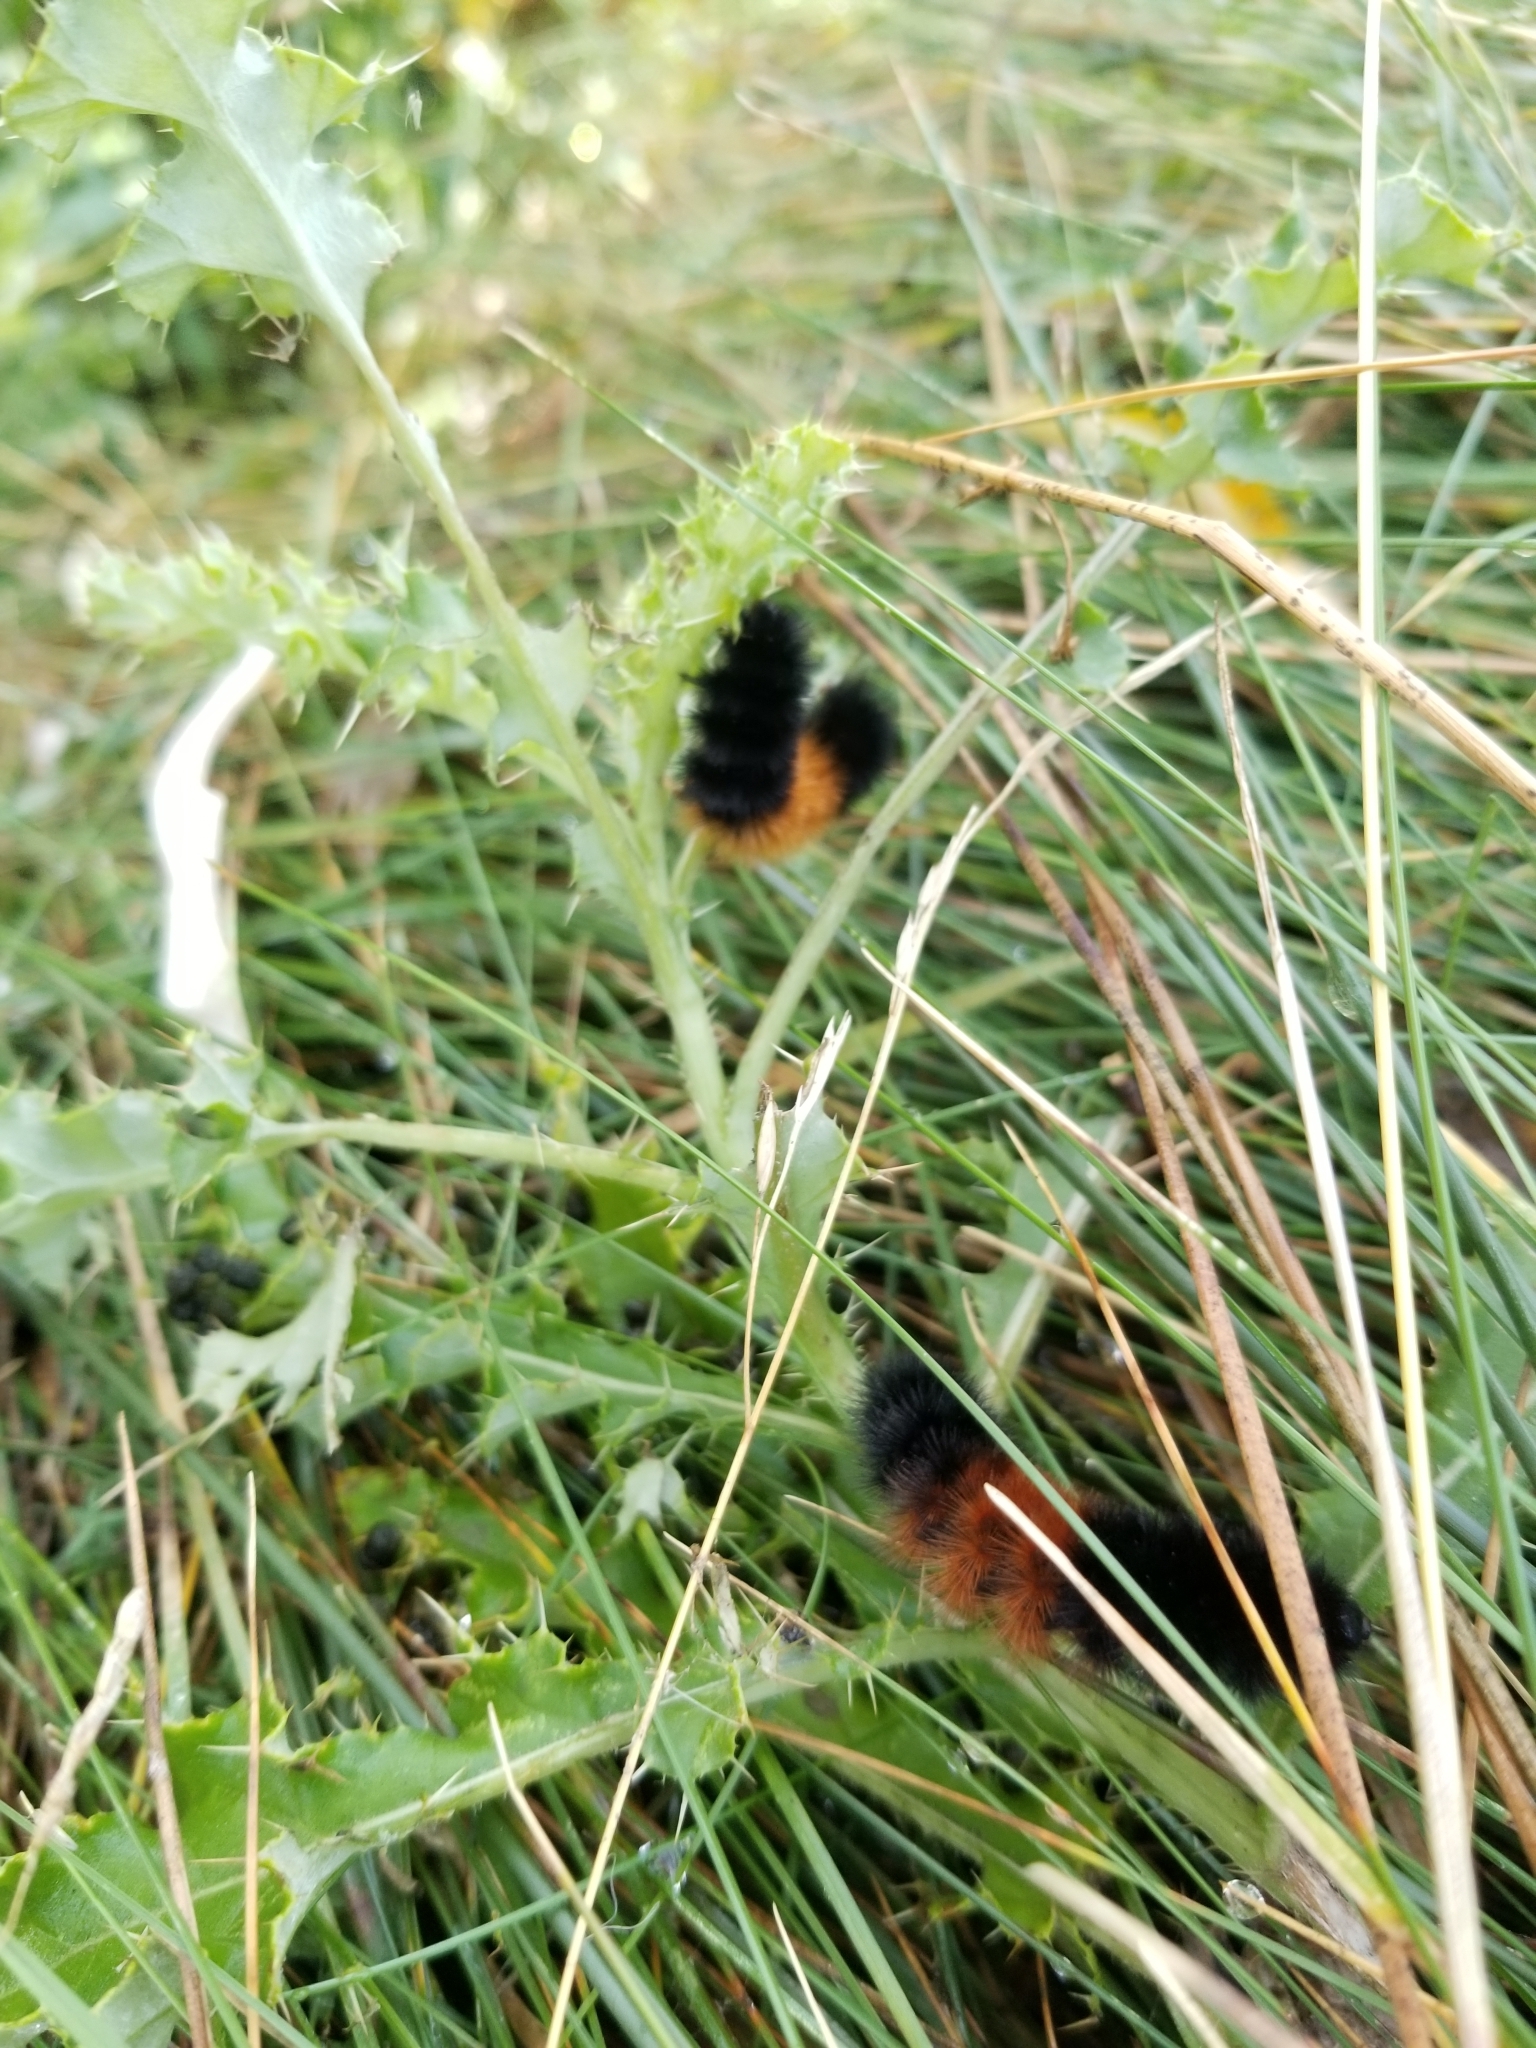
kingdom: Animalia
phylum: Arthropoda
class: Insecta
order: Lepidoptera
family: Erebidae
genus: Pyrrharctia
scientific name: Pyrrharctia isabella
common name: Isabella tiger moth
